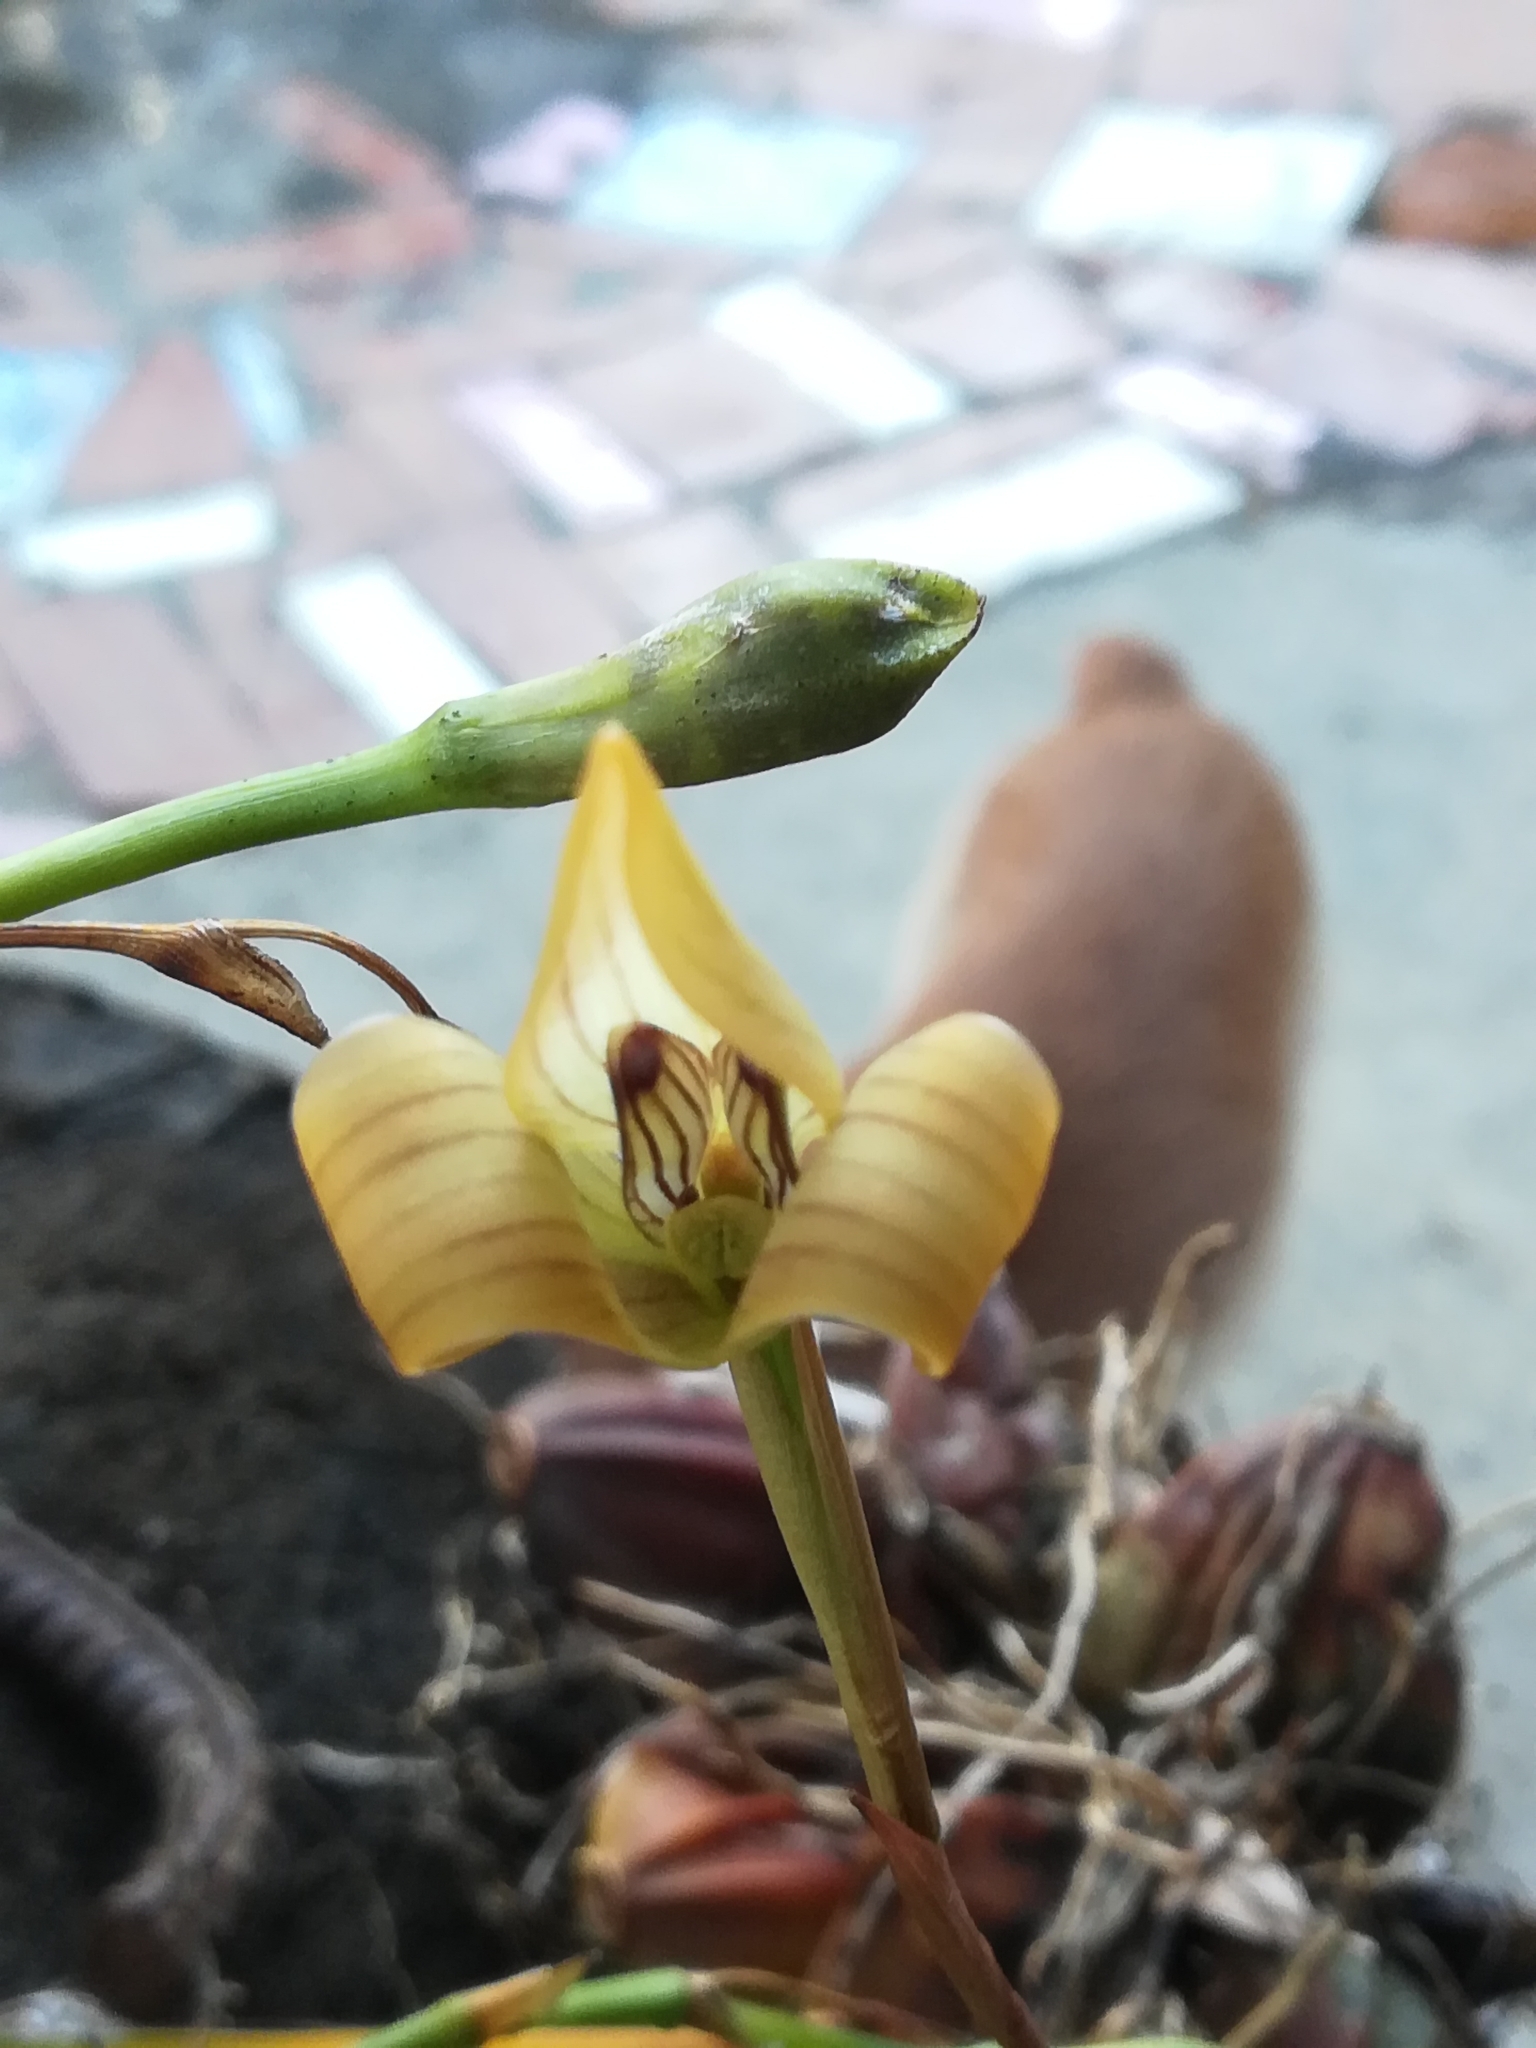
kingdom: Plantae
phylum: Tracheophyta
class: Liliopsida
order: Asparagales
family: Orchidaceae
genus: Maxillaria
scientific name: Maxillaria egertoniana
